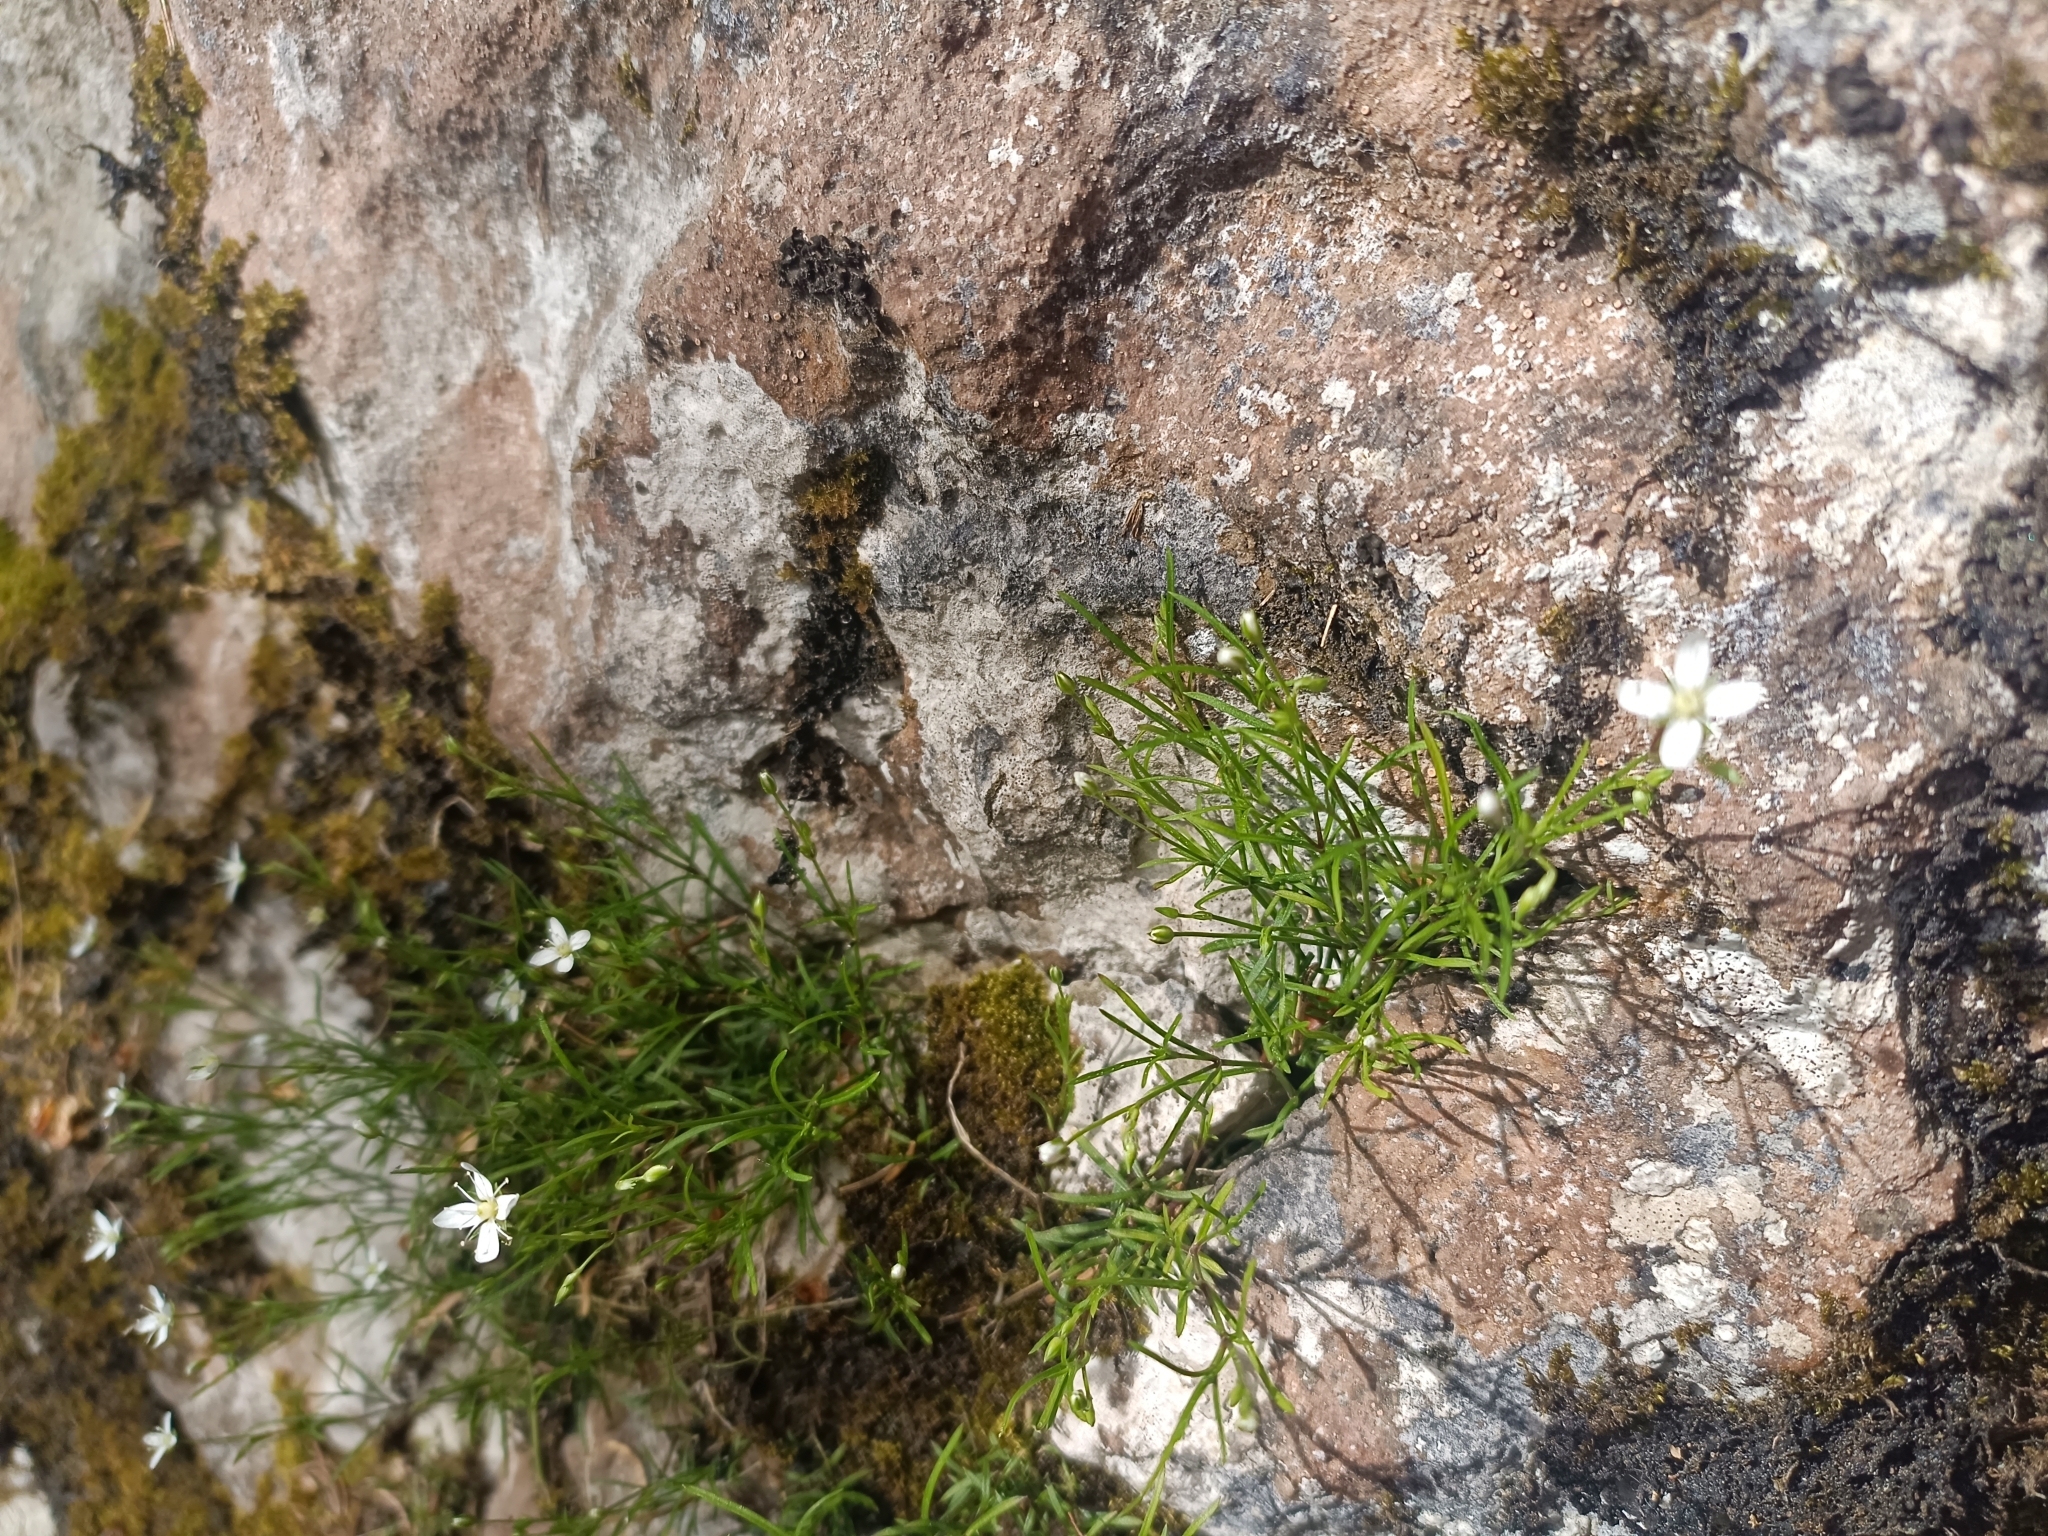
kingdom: Plantae
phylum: Tracheophyta
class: Magnoliopsida
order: Caryophyllales
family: Caryophyllaceae
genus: Moehringia
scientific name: Moehringia muscosa
